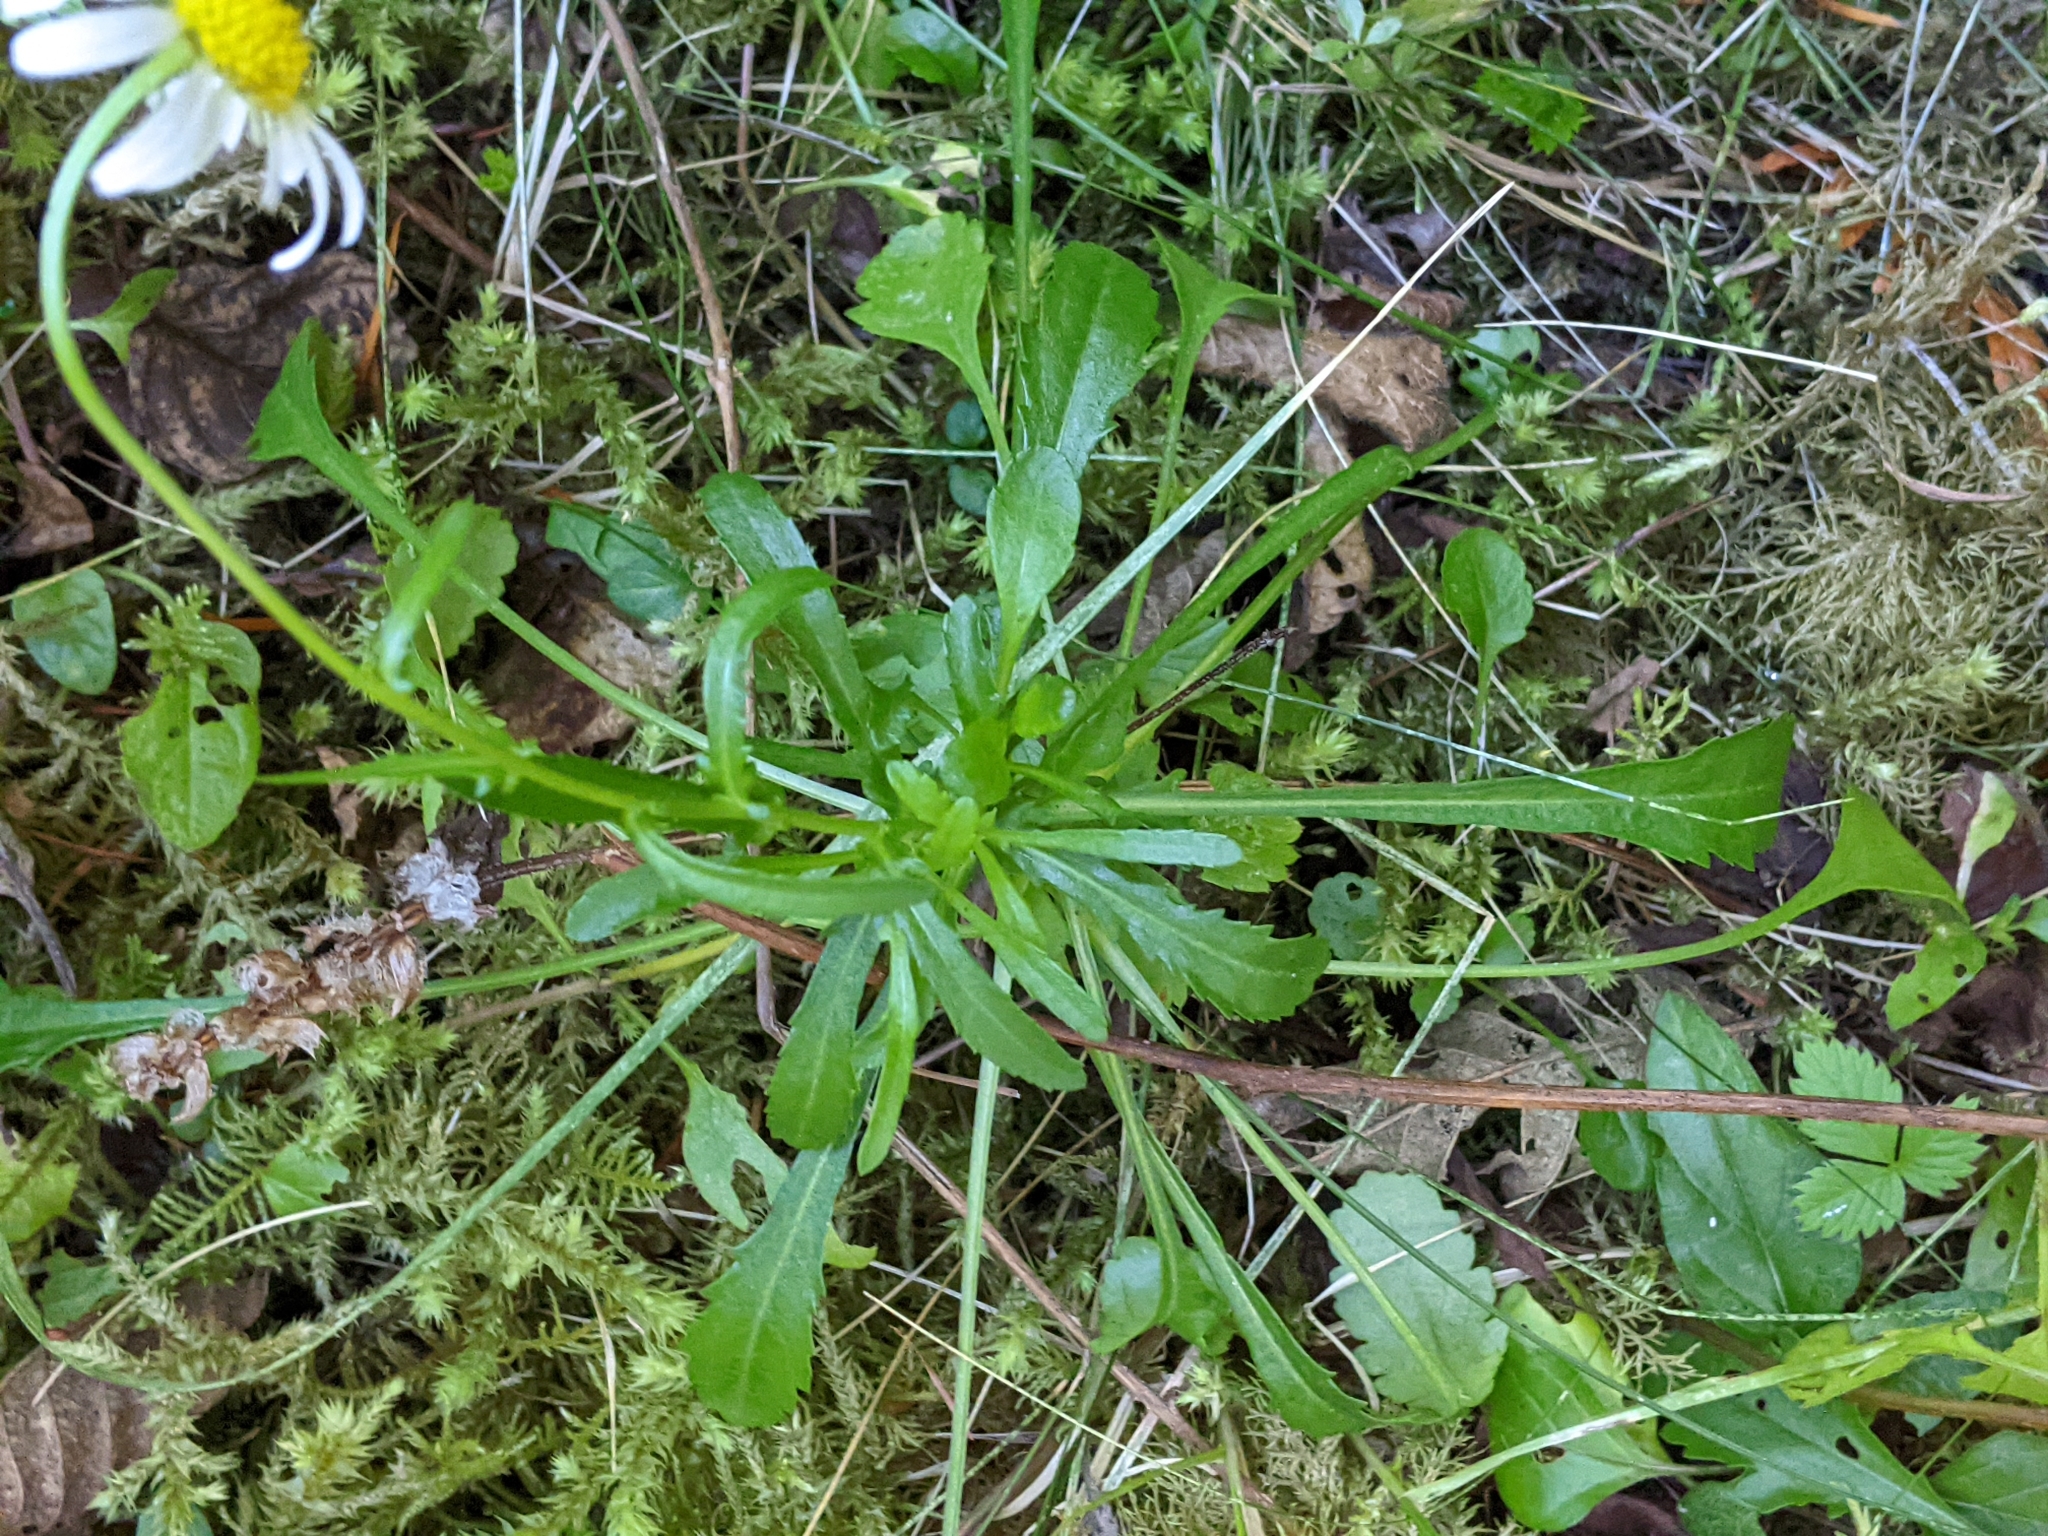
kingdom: Plantae
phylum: Tracheophyta
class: Magnoliopsida
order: Asterales
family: Asteraceae
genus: Leucanthemum
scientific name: Leucanthemum vulgare
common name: Oxeye daisy
